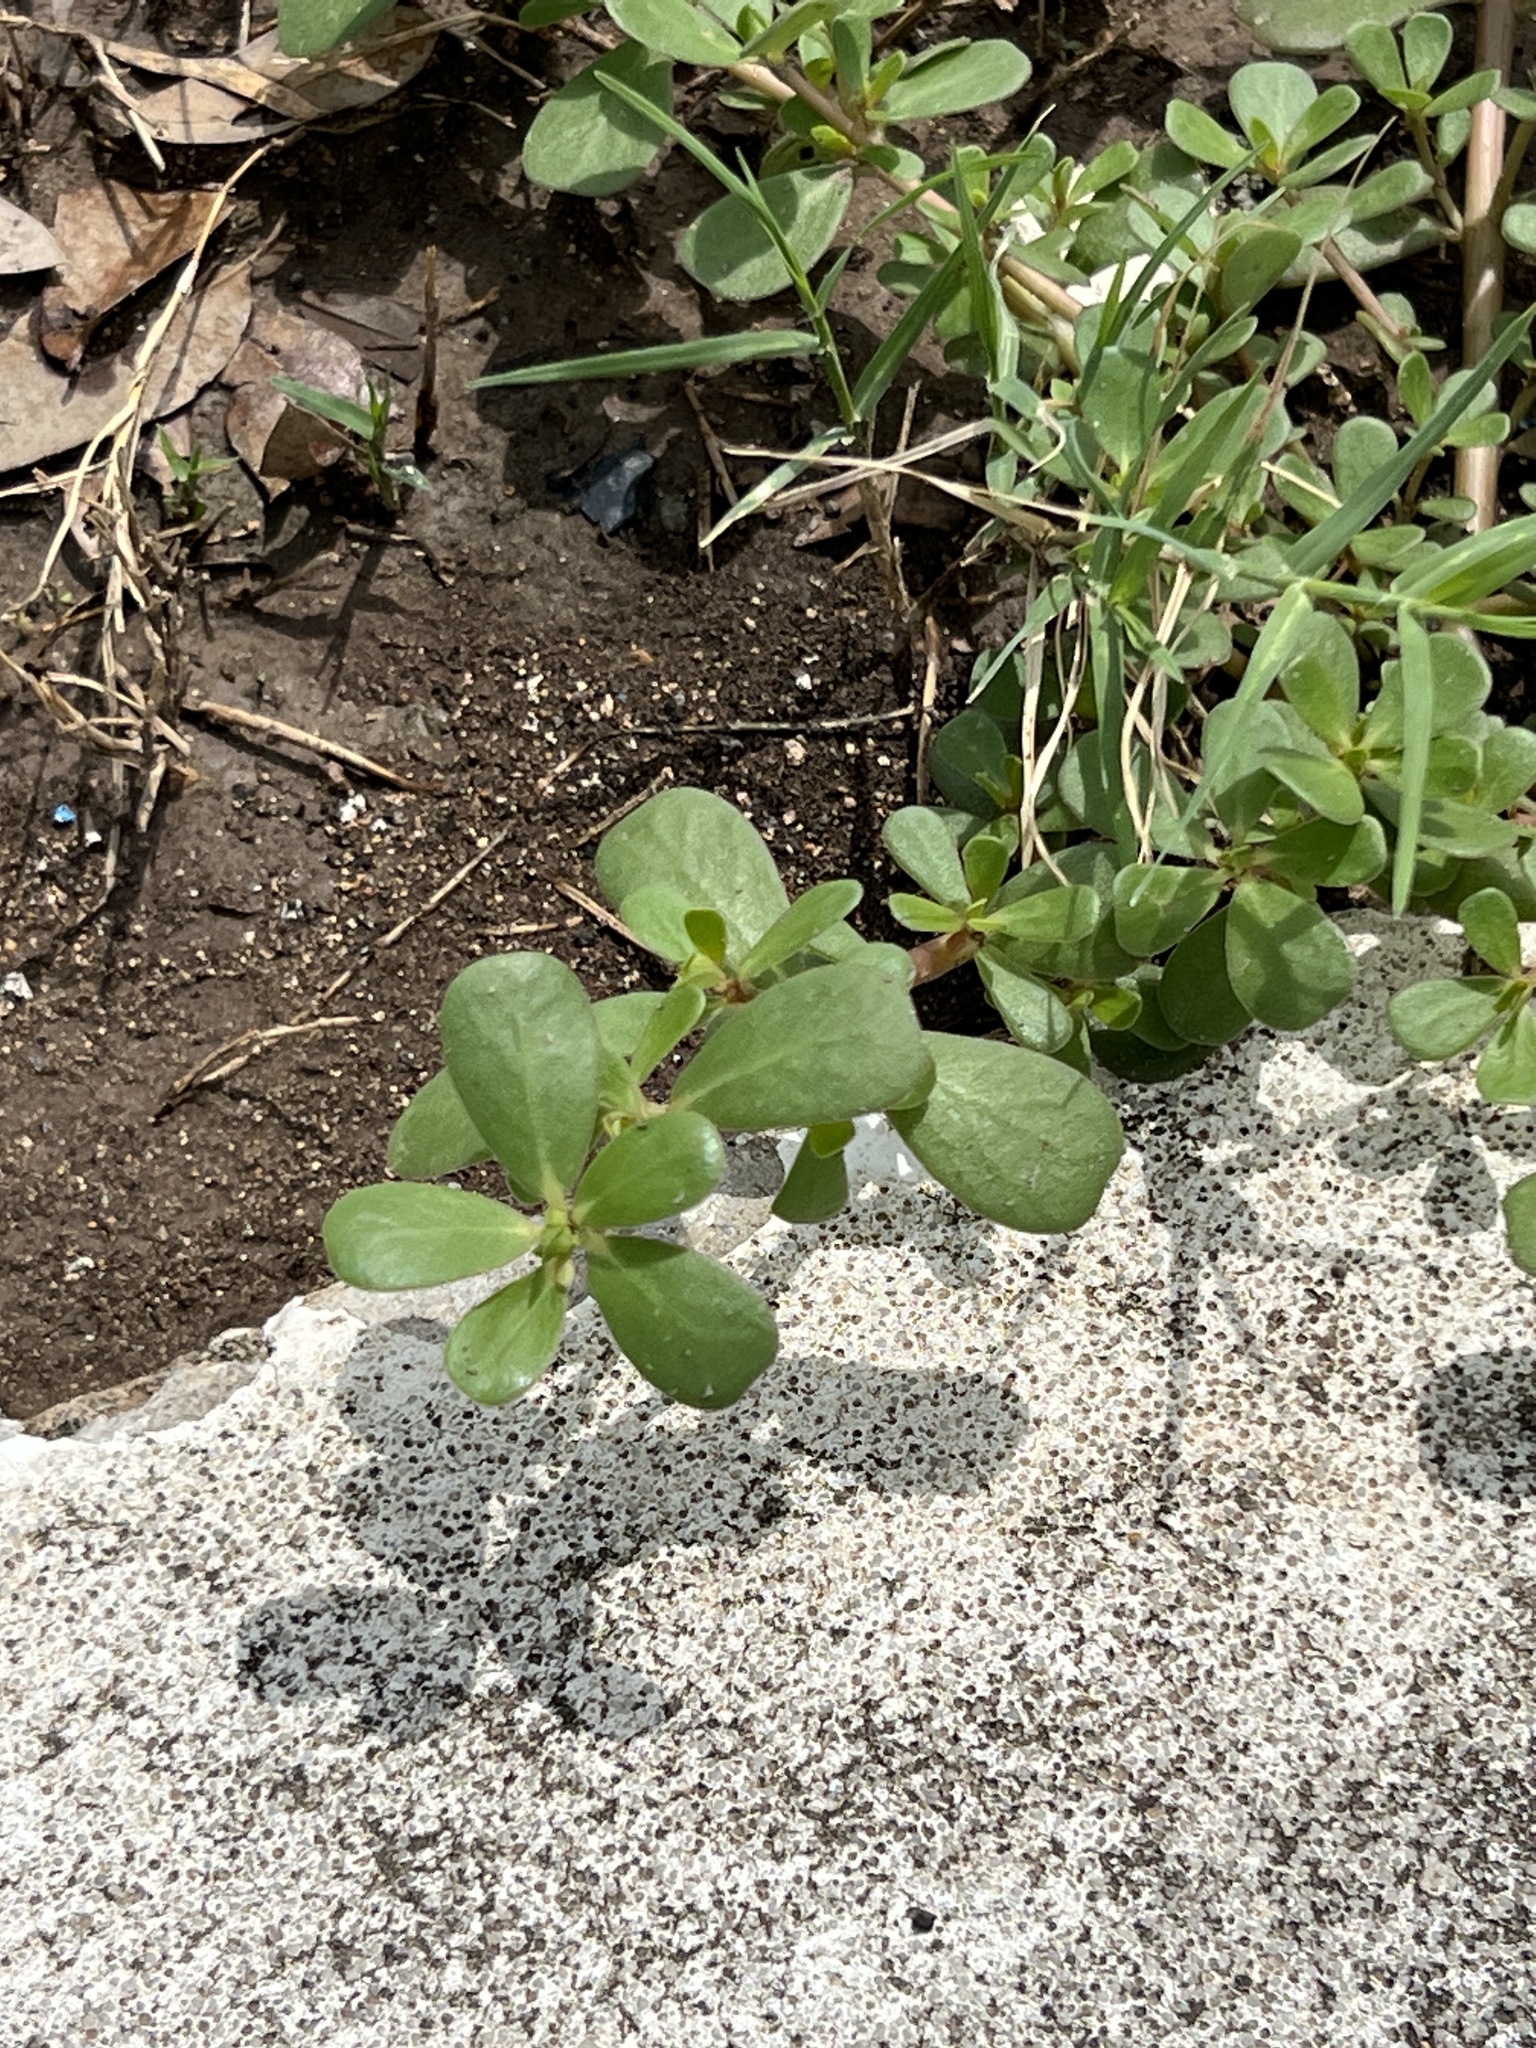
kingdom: Plantae
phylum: Tracheophyta
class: Magnoliopsida
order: Caryophyllales
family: Portulacaceae
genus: Portulaca
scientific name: Portulaca oleracea
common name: Common purslane
